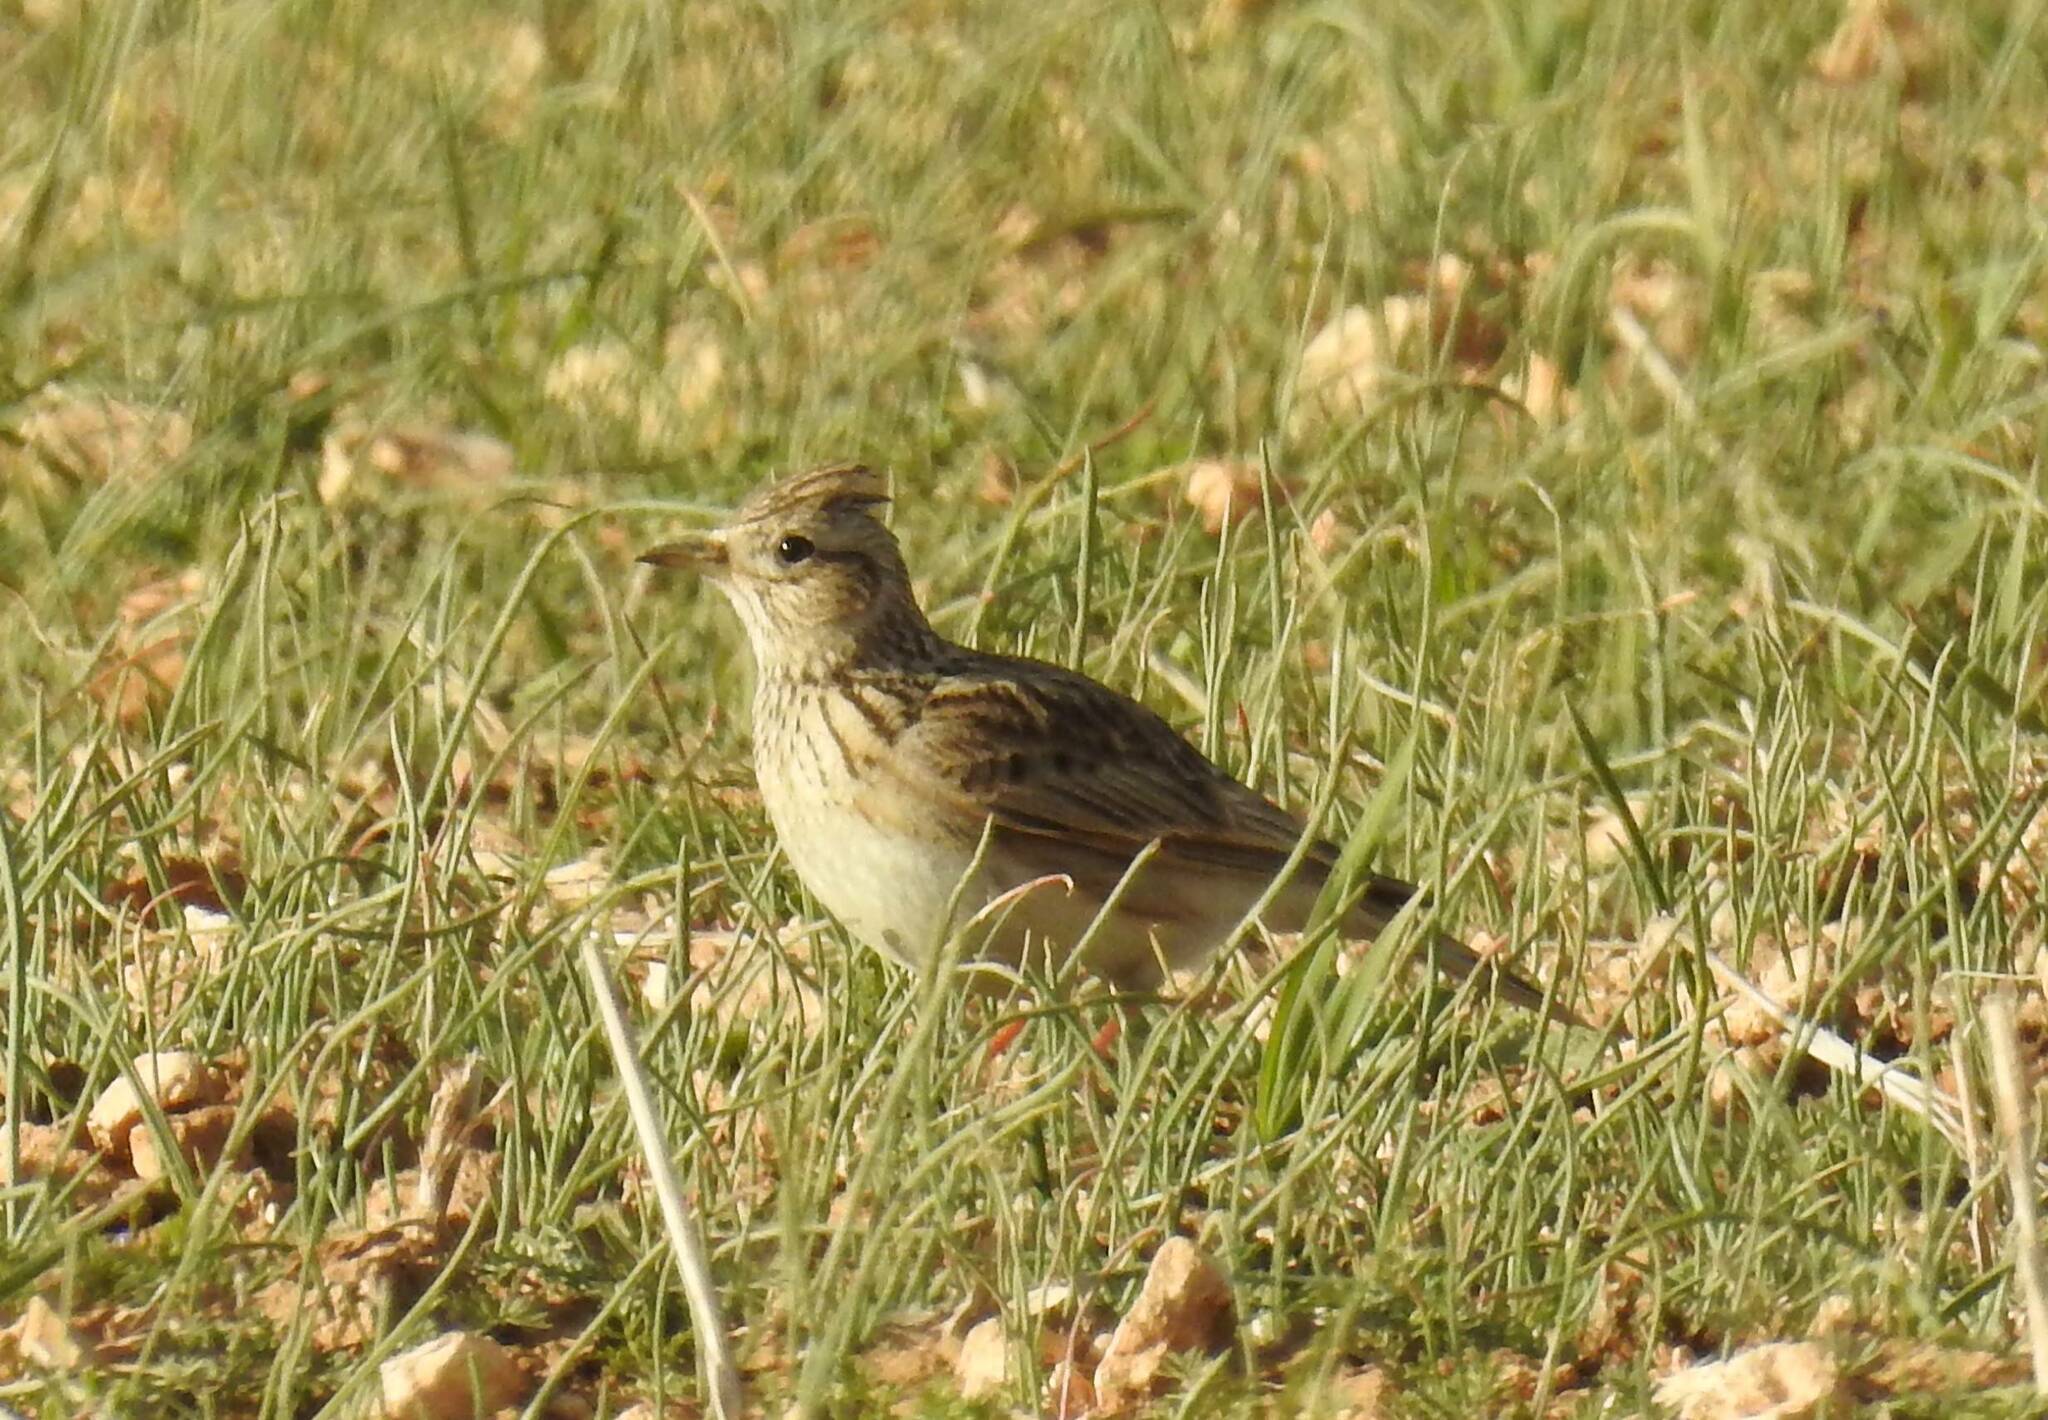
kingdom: Animalia
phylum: Chordata
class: Aves
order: Passeriformes
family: Alaudidae
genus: Galerida
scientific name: Galerida cristata
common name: Crested lark
